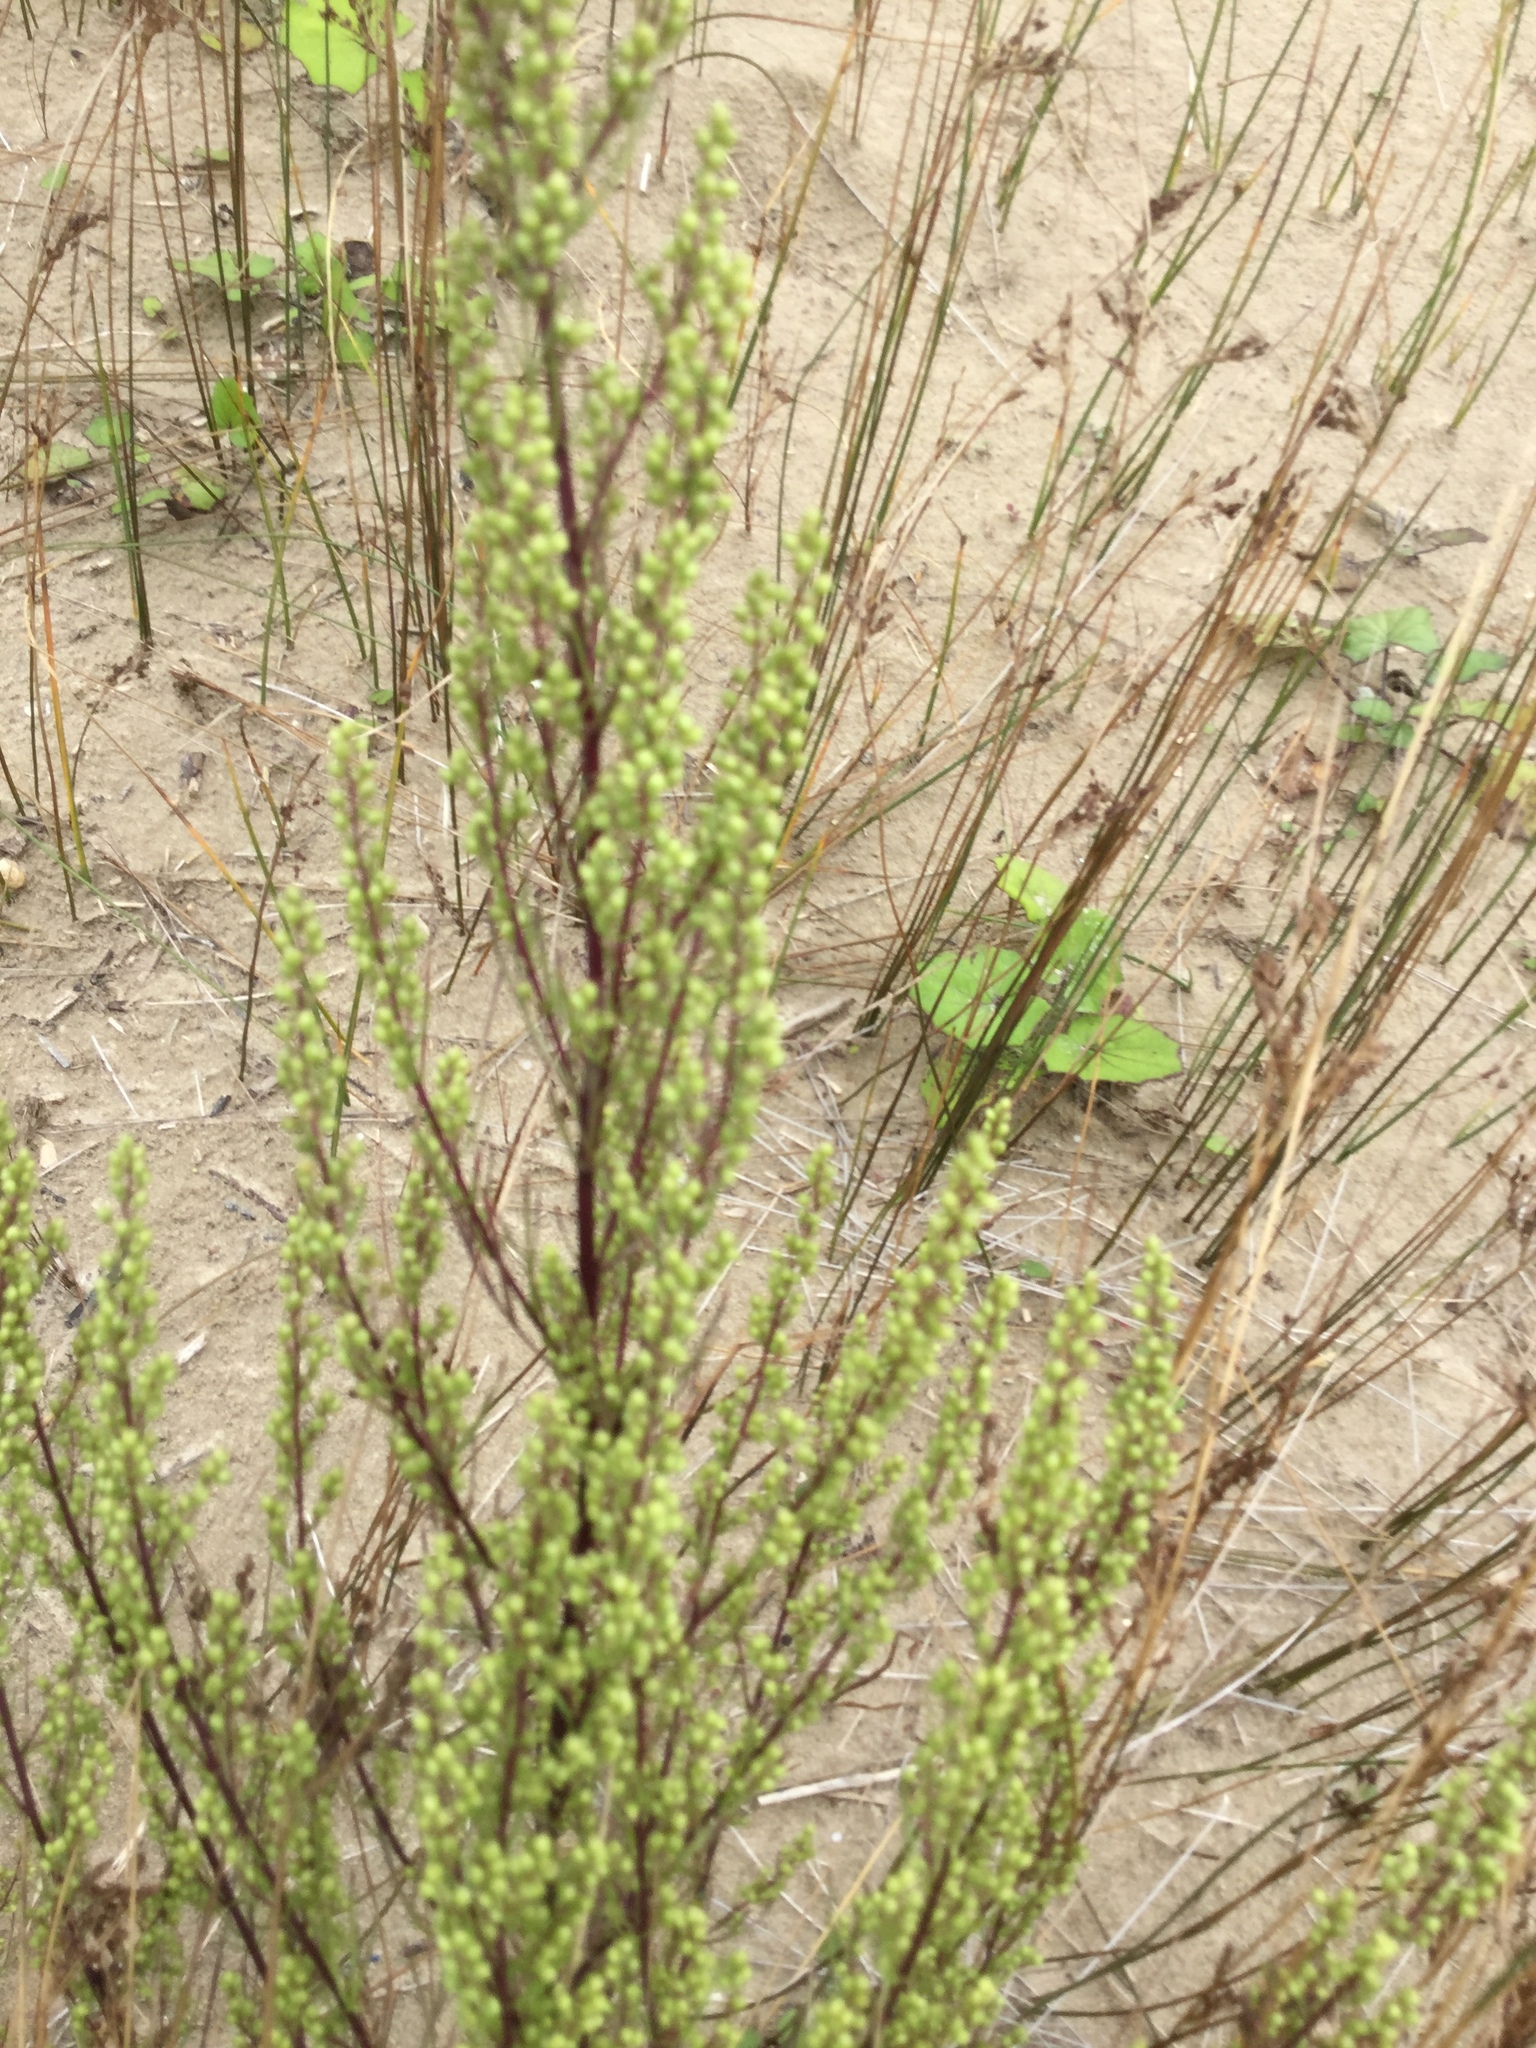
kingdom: Plantae
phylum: Tracheophyta
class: Magnoliopsida
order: Asterales
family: Asteraceae
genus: Artemisia
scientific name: Artemisia campestris
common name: Field wormwood
